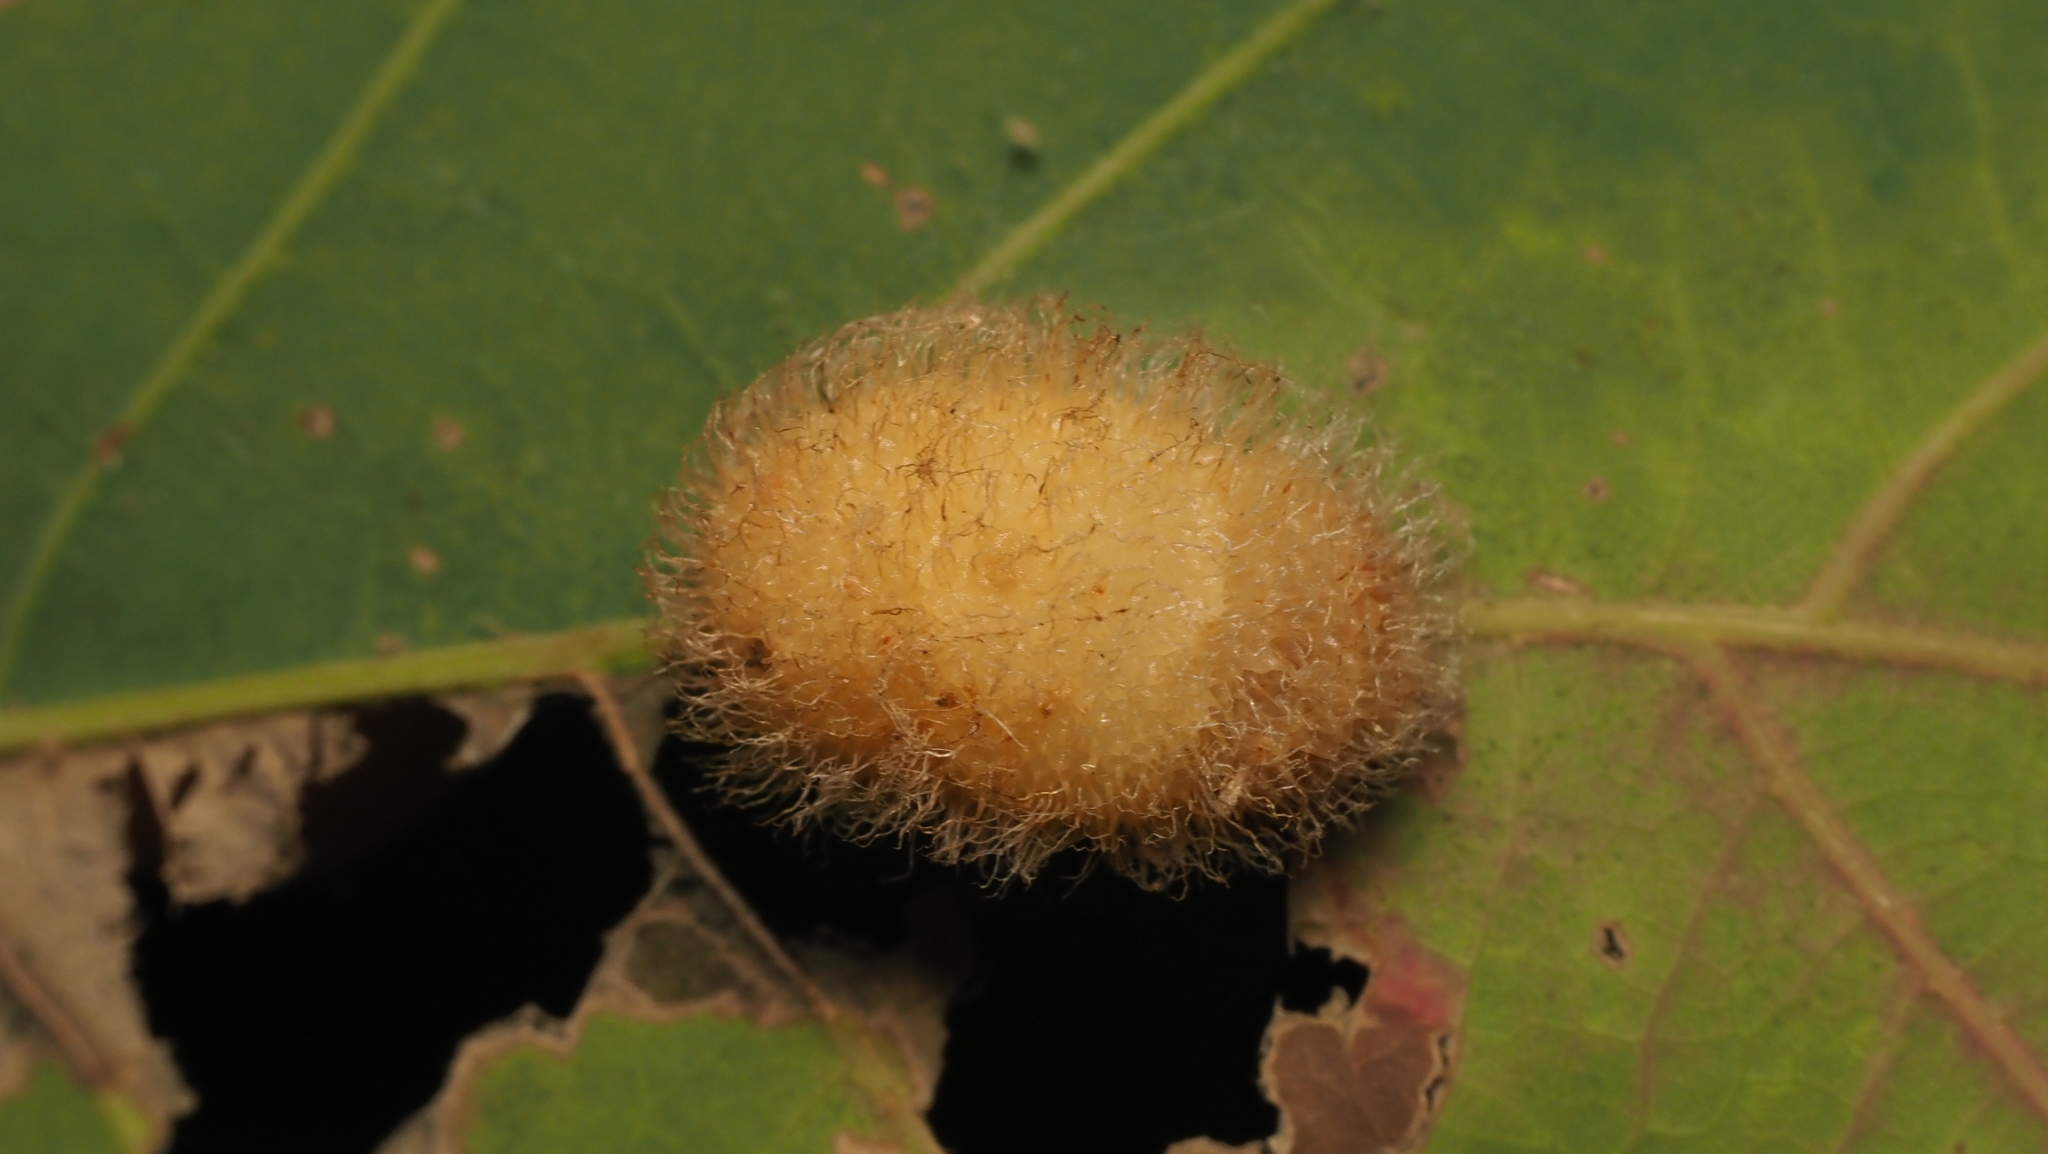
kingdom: Animalia
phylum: Arthropoda
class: Insecta
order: Hymenoptera
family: Cynipidae
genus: Acraspis
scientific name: Acraspis erinacei
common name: Hedgehog gall wasp
